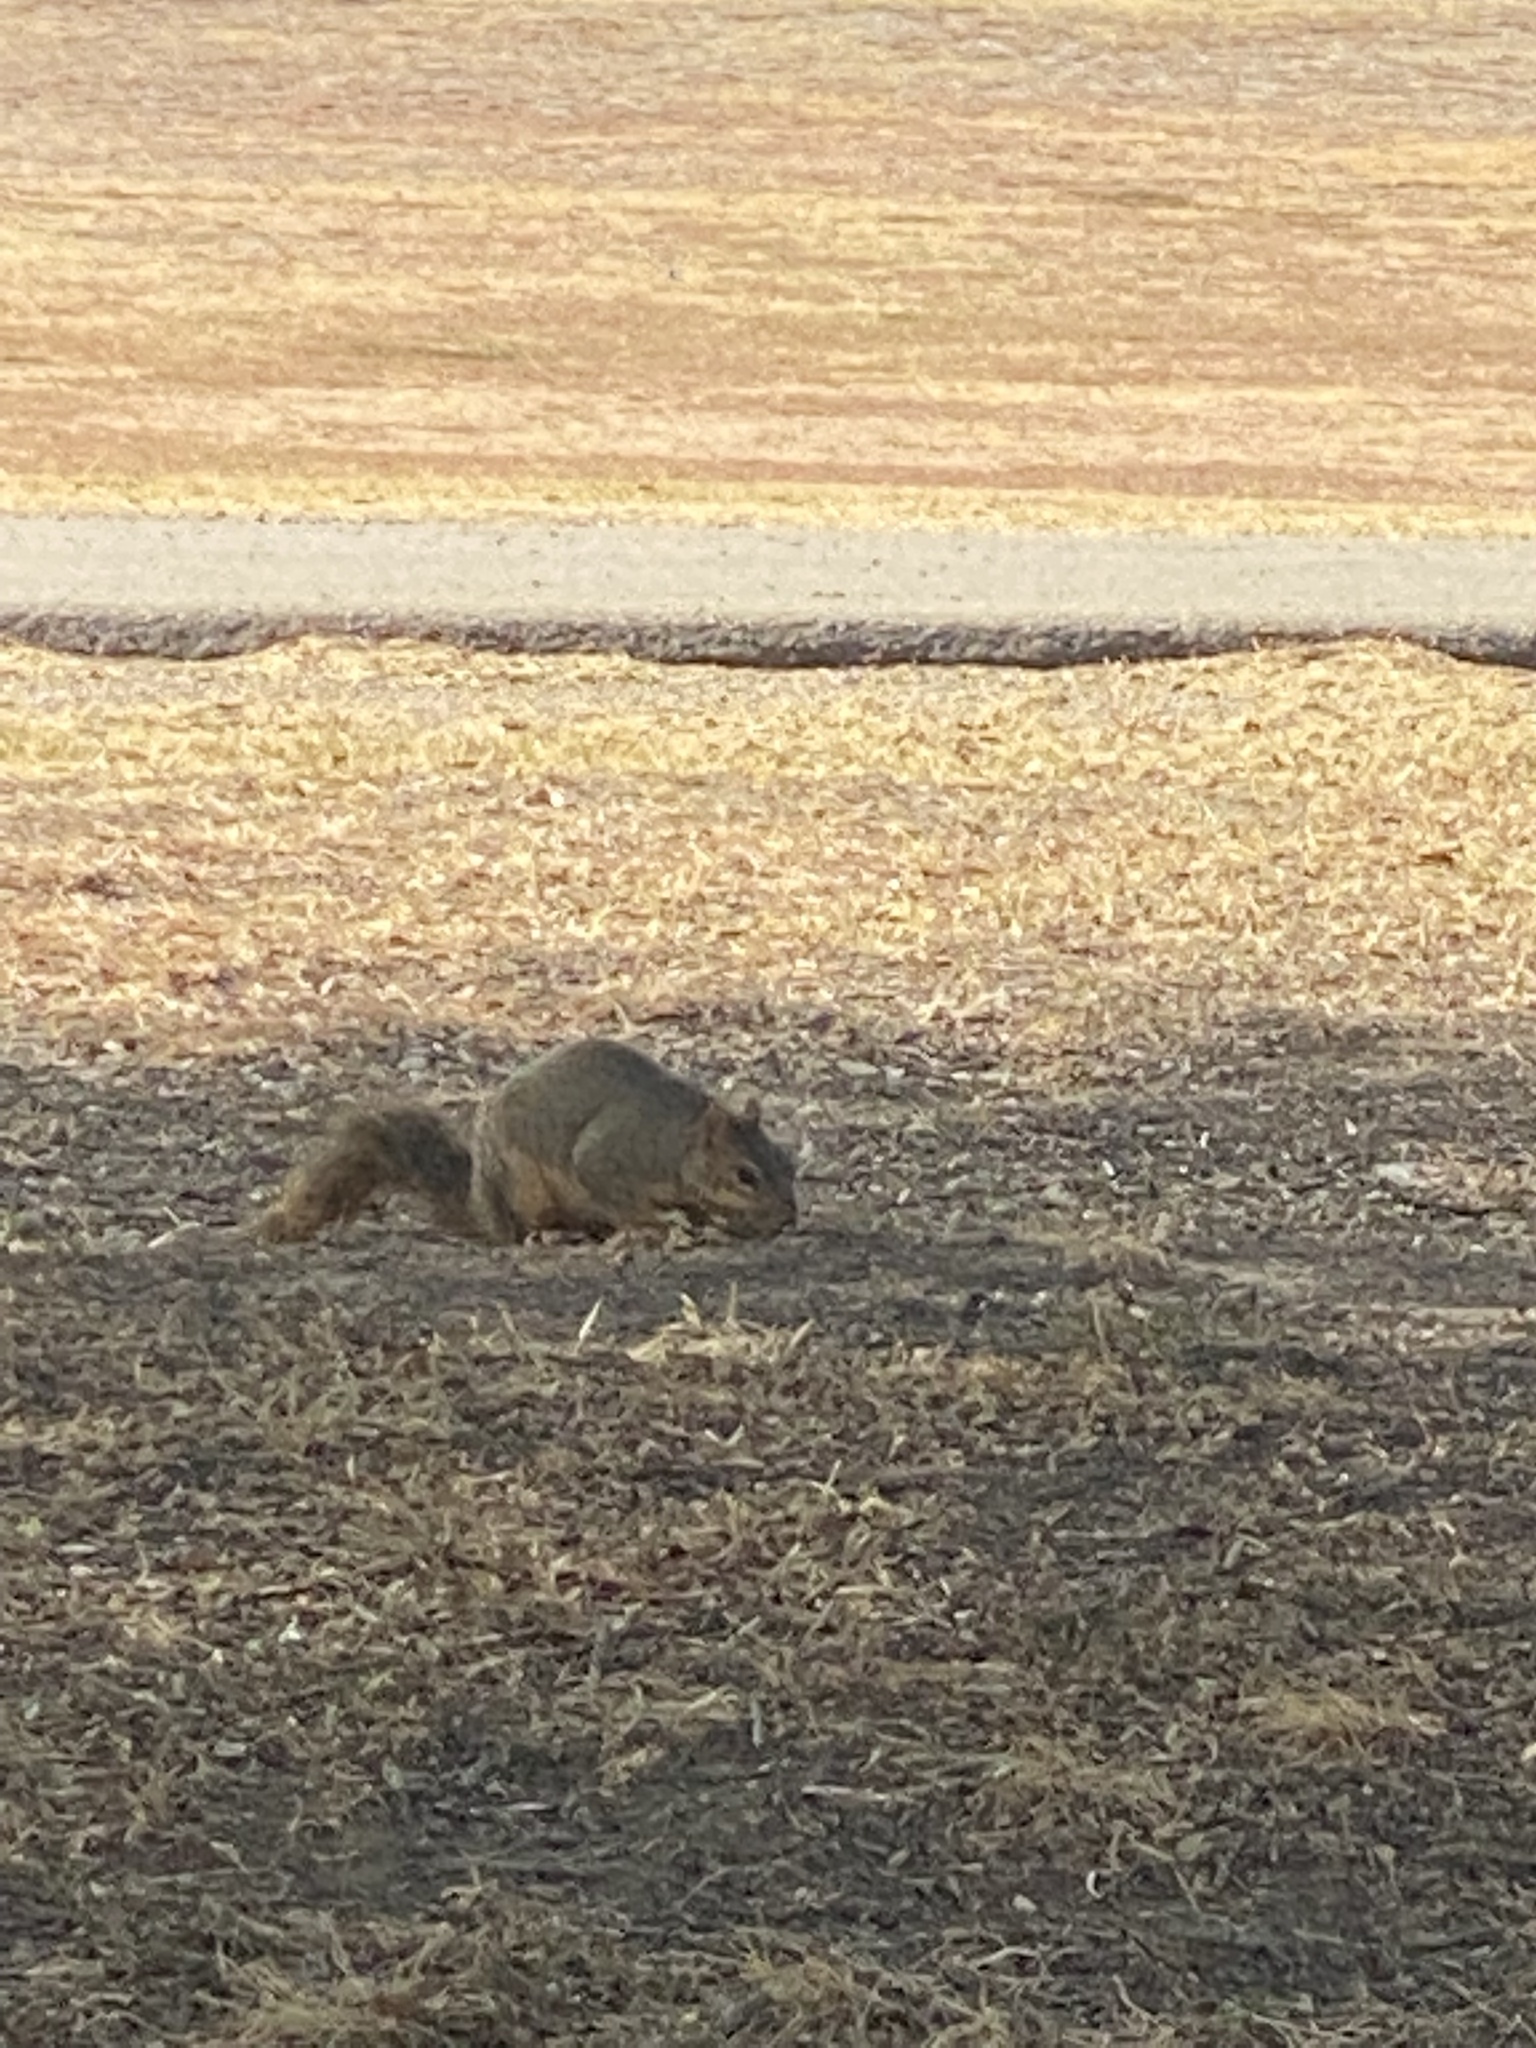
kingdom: Animalia
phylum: Chordata
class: Mammalia
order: Rodentia
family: Sciuridae
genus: Sciurus
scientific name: Sciurus niger
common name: Fox squirrel
